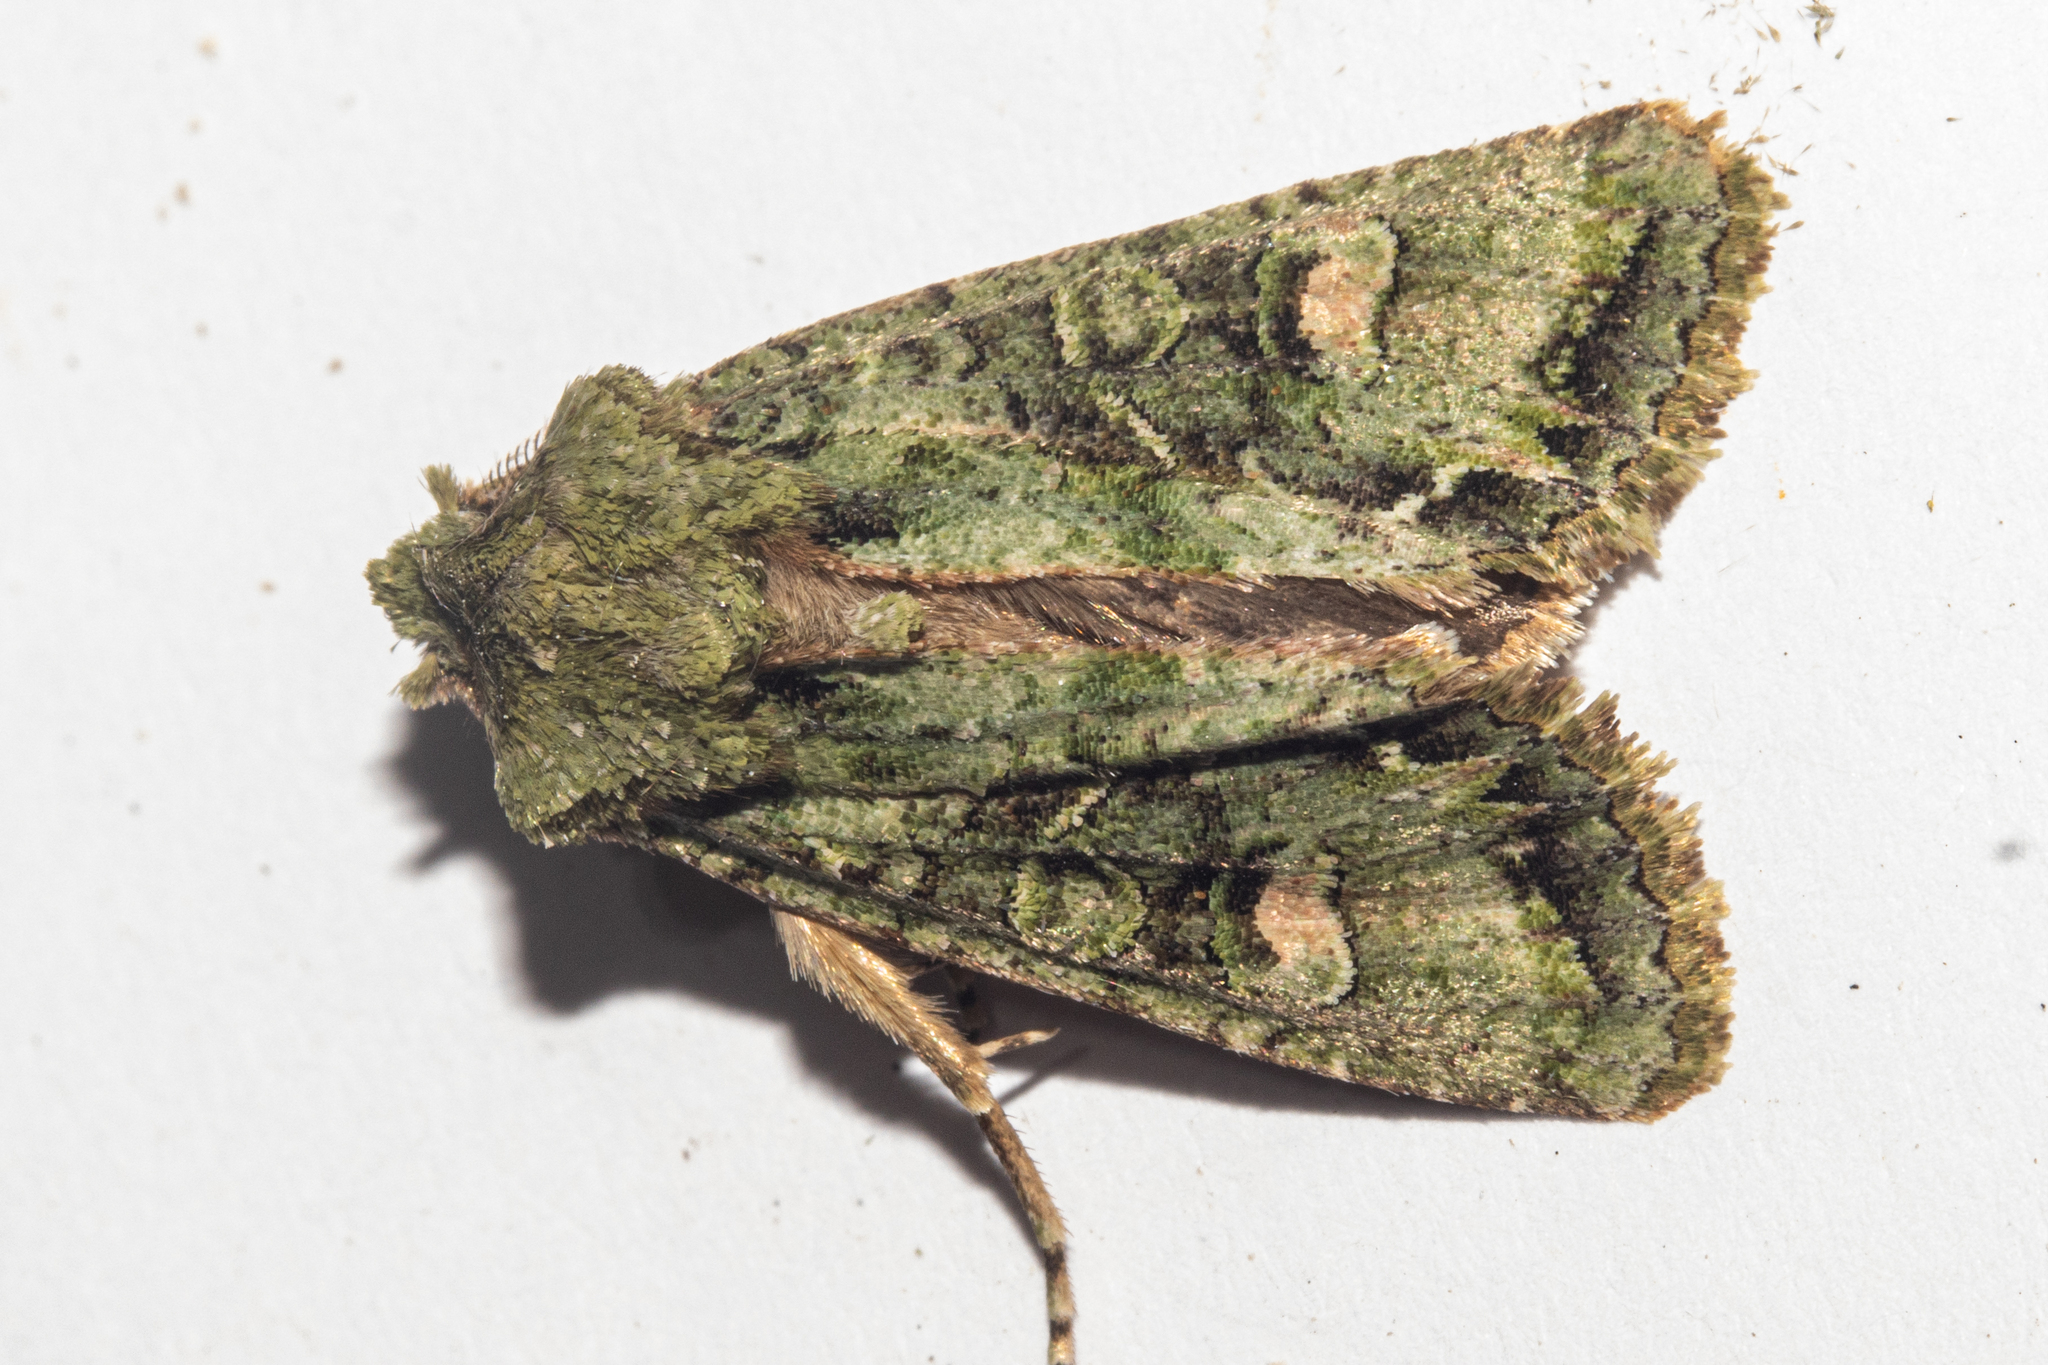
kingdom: Animalia
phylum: Arthropoda
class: Insecta
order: Lepidoptera
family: Noctuidae
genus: Ichneutica
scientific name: Ichneutica
